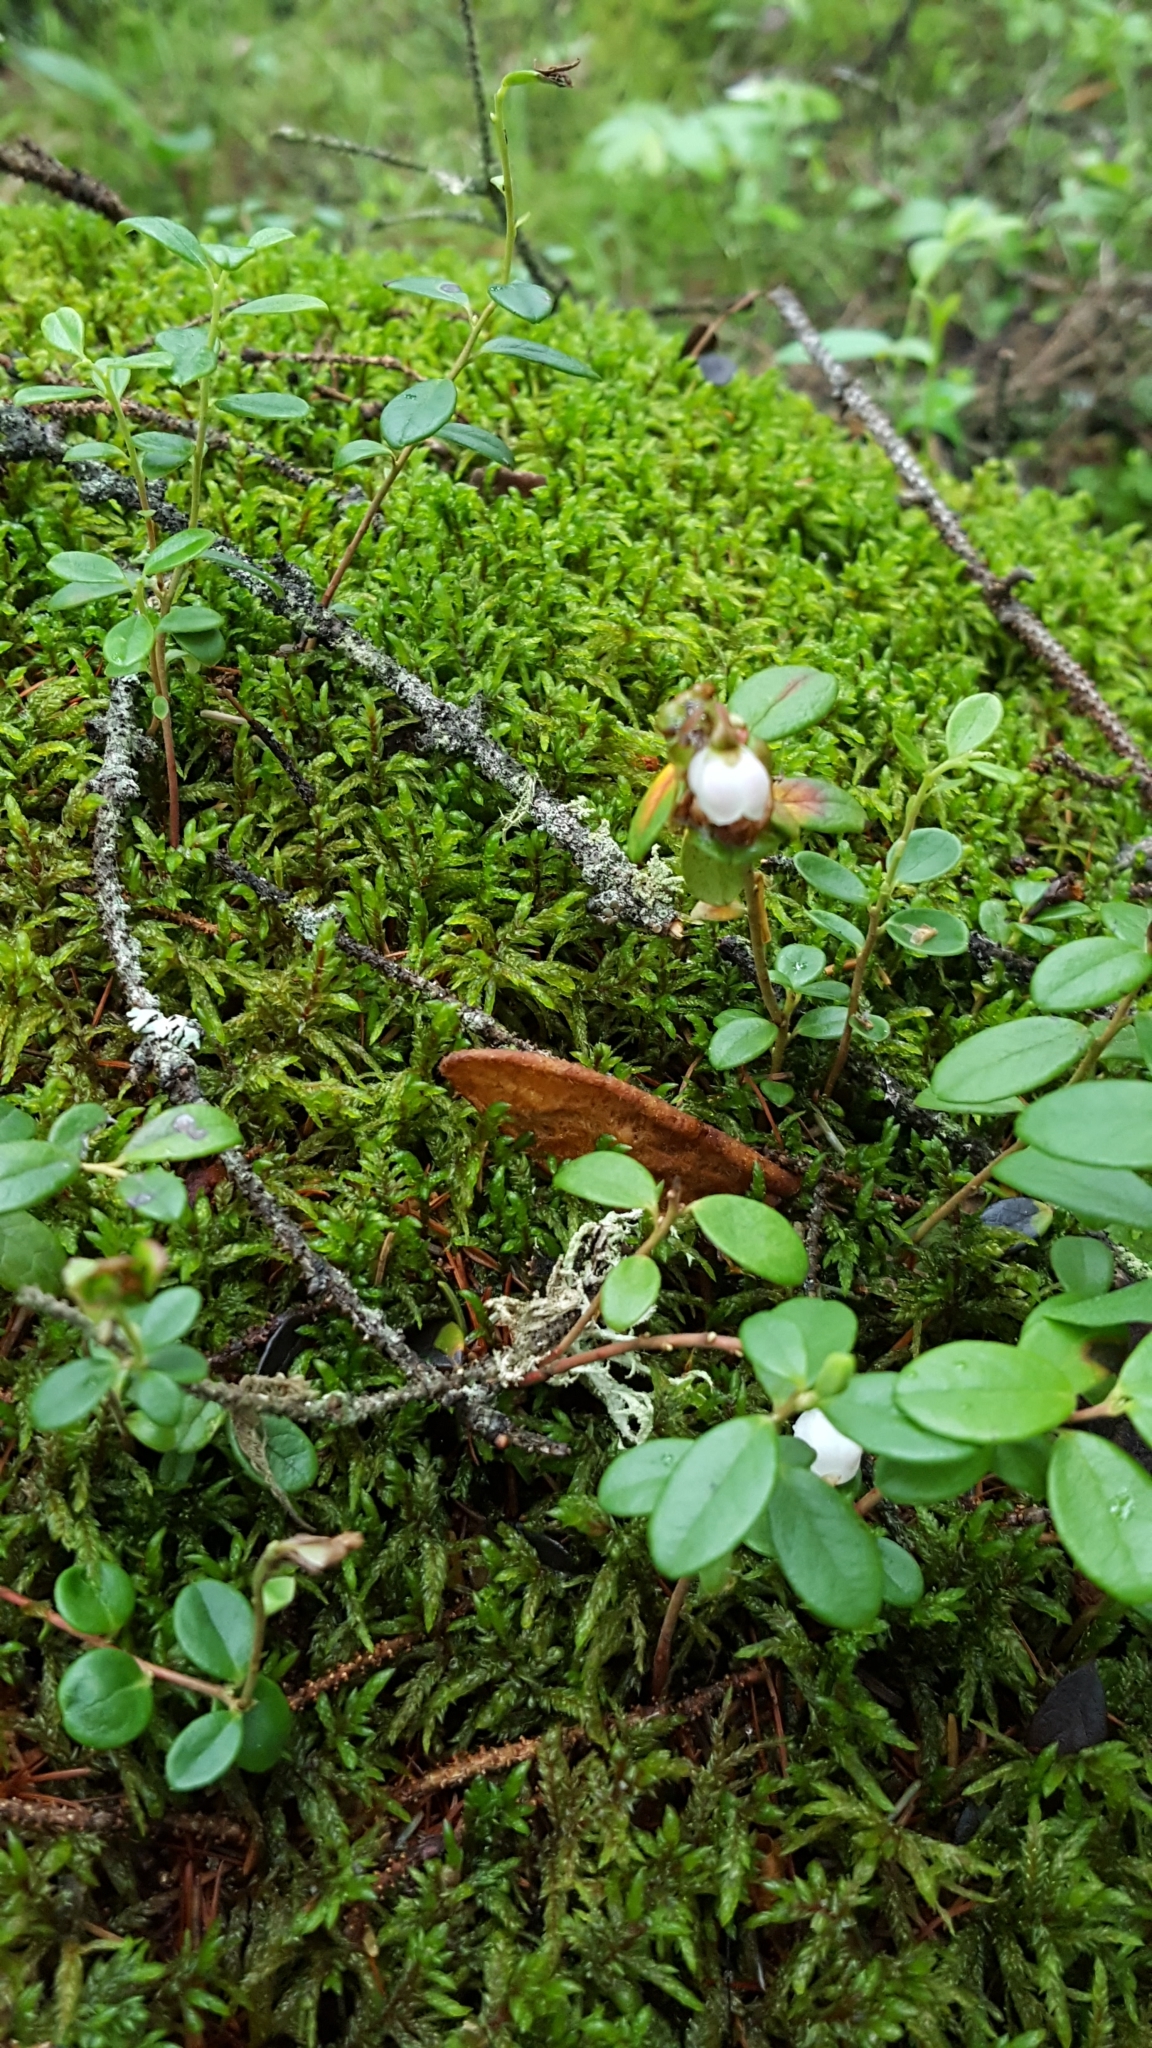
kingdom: Plantae
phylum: Tracheophyta
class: Magnoliopsida
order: Ericales
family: Ericaceae
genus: Vaccinium
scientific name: Vaccinium vitis-idaea
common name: Cowberry
